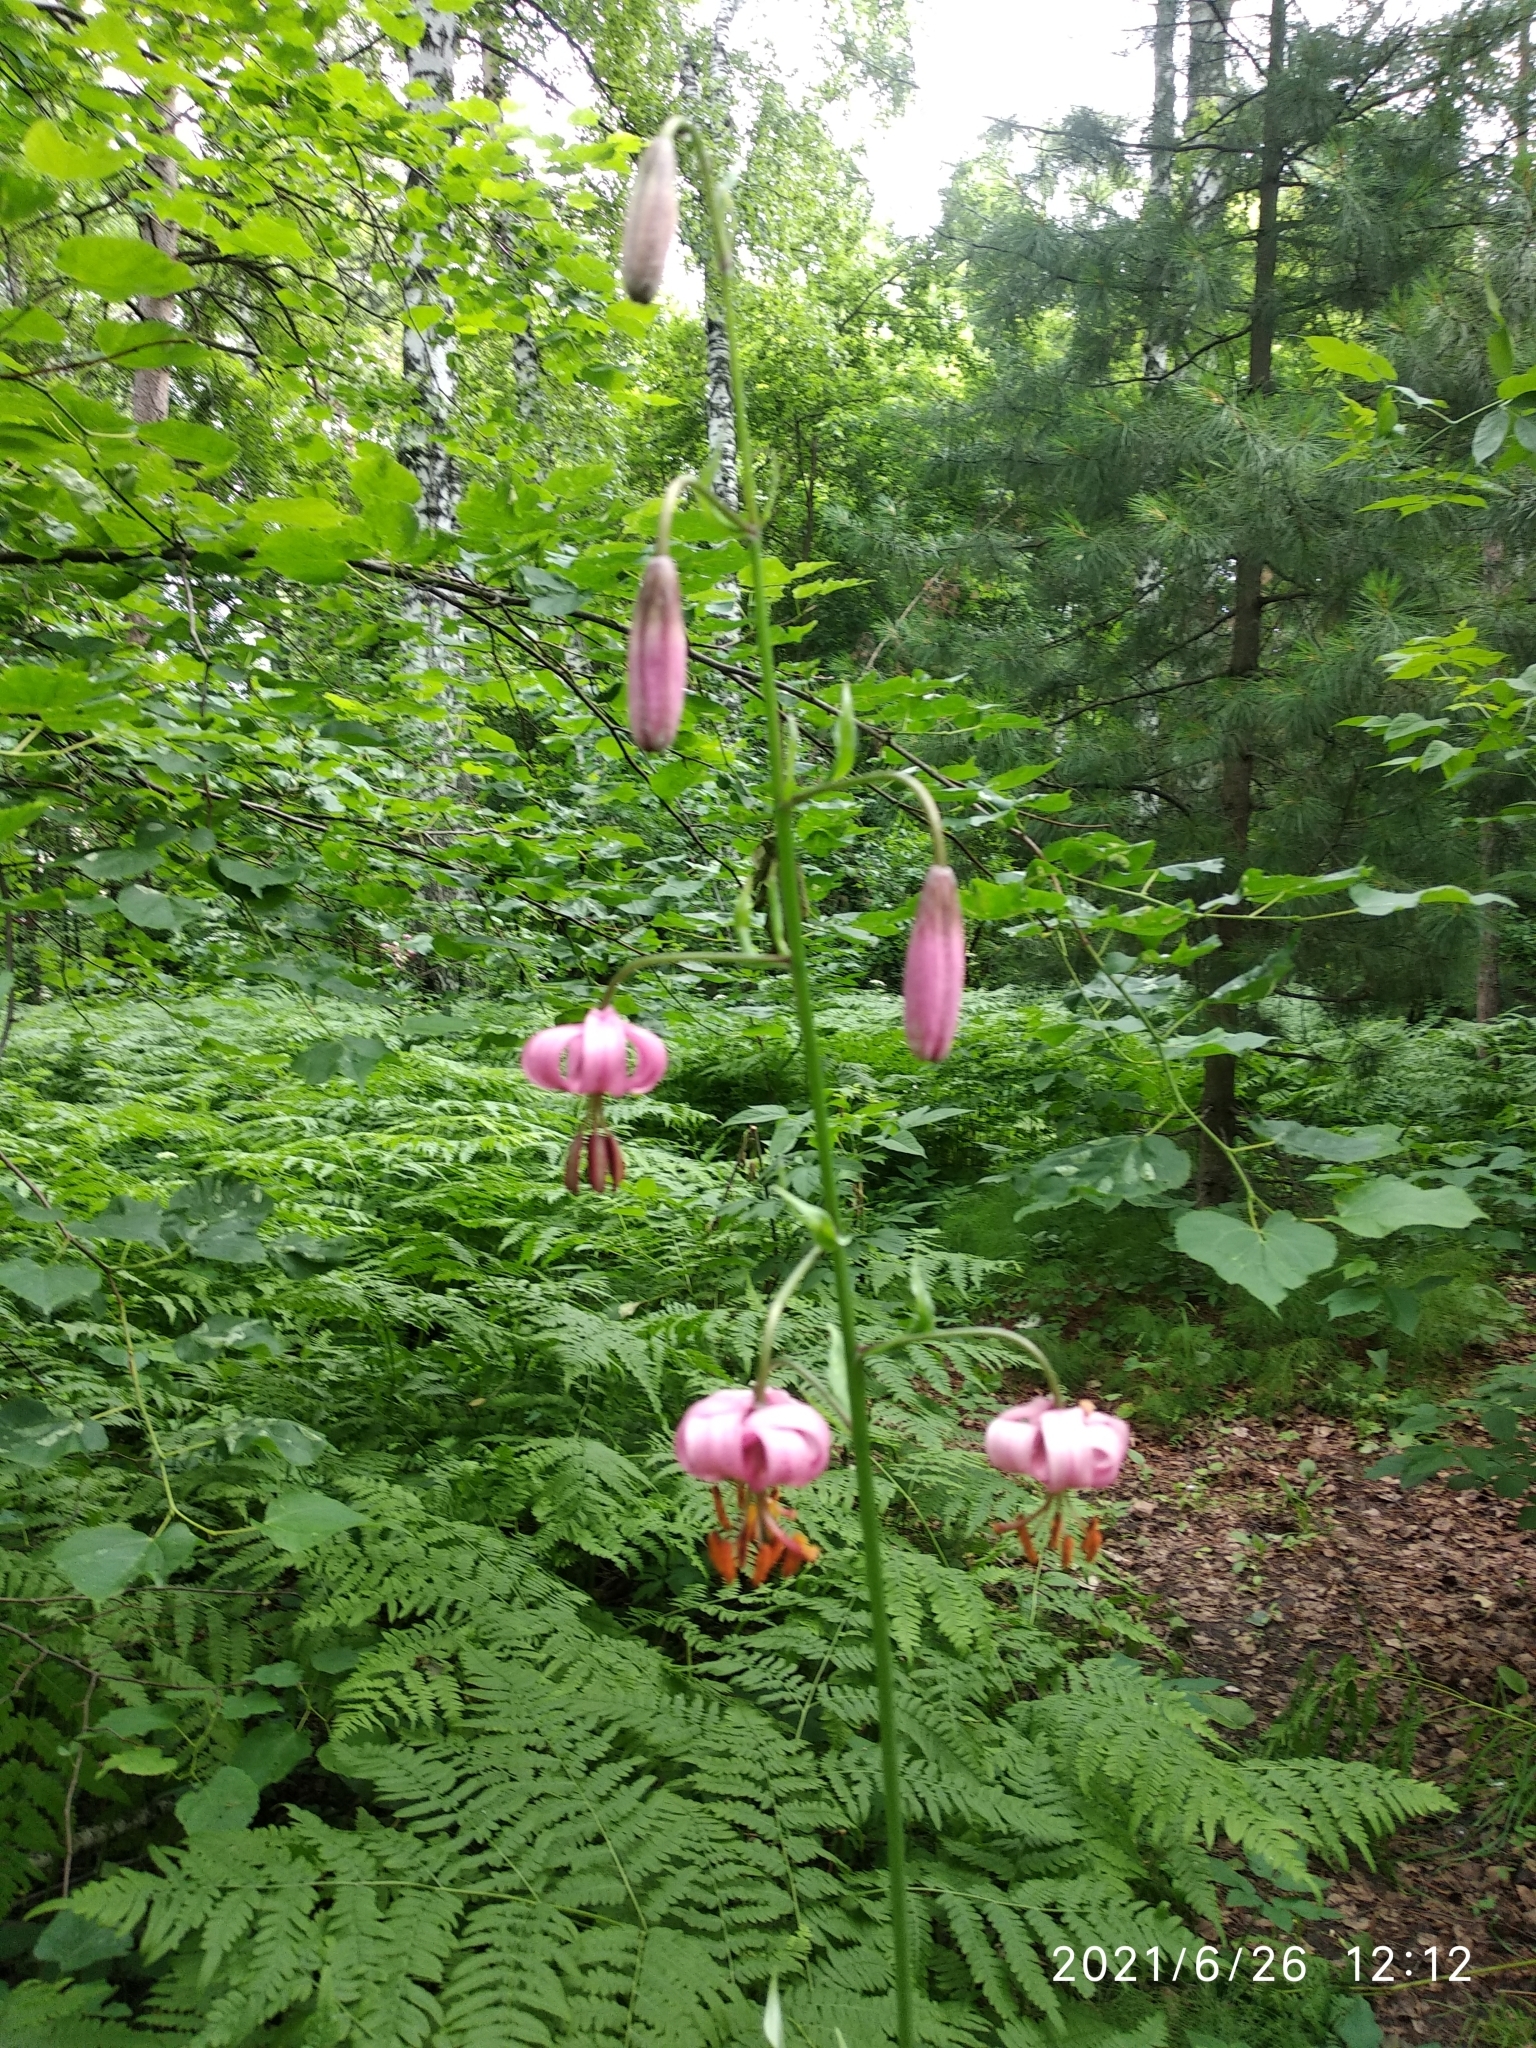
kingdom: Plantae
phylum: Tracheophyta
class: Liliopsida
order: Liliales
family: Liliaceae
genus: Lilium
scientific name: Lilium martagon
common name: Martagon lily
